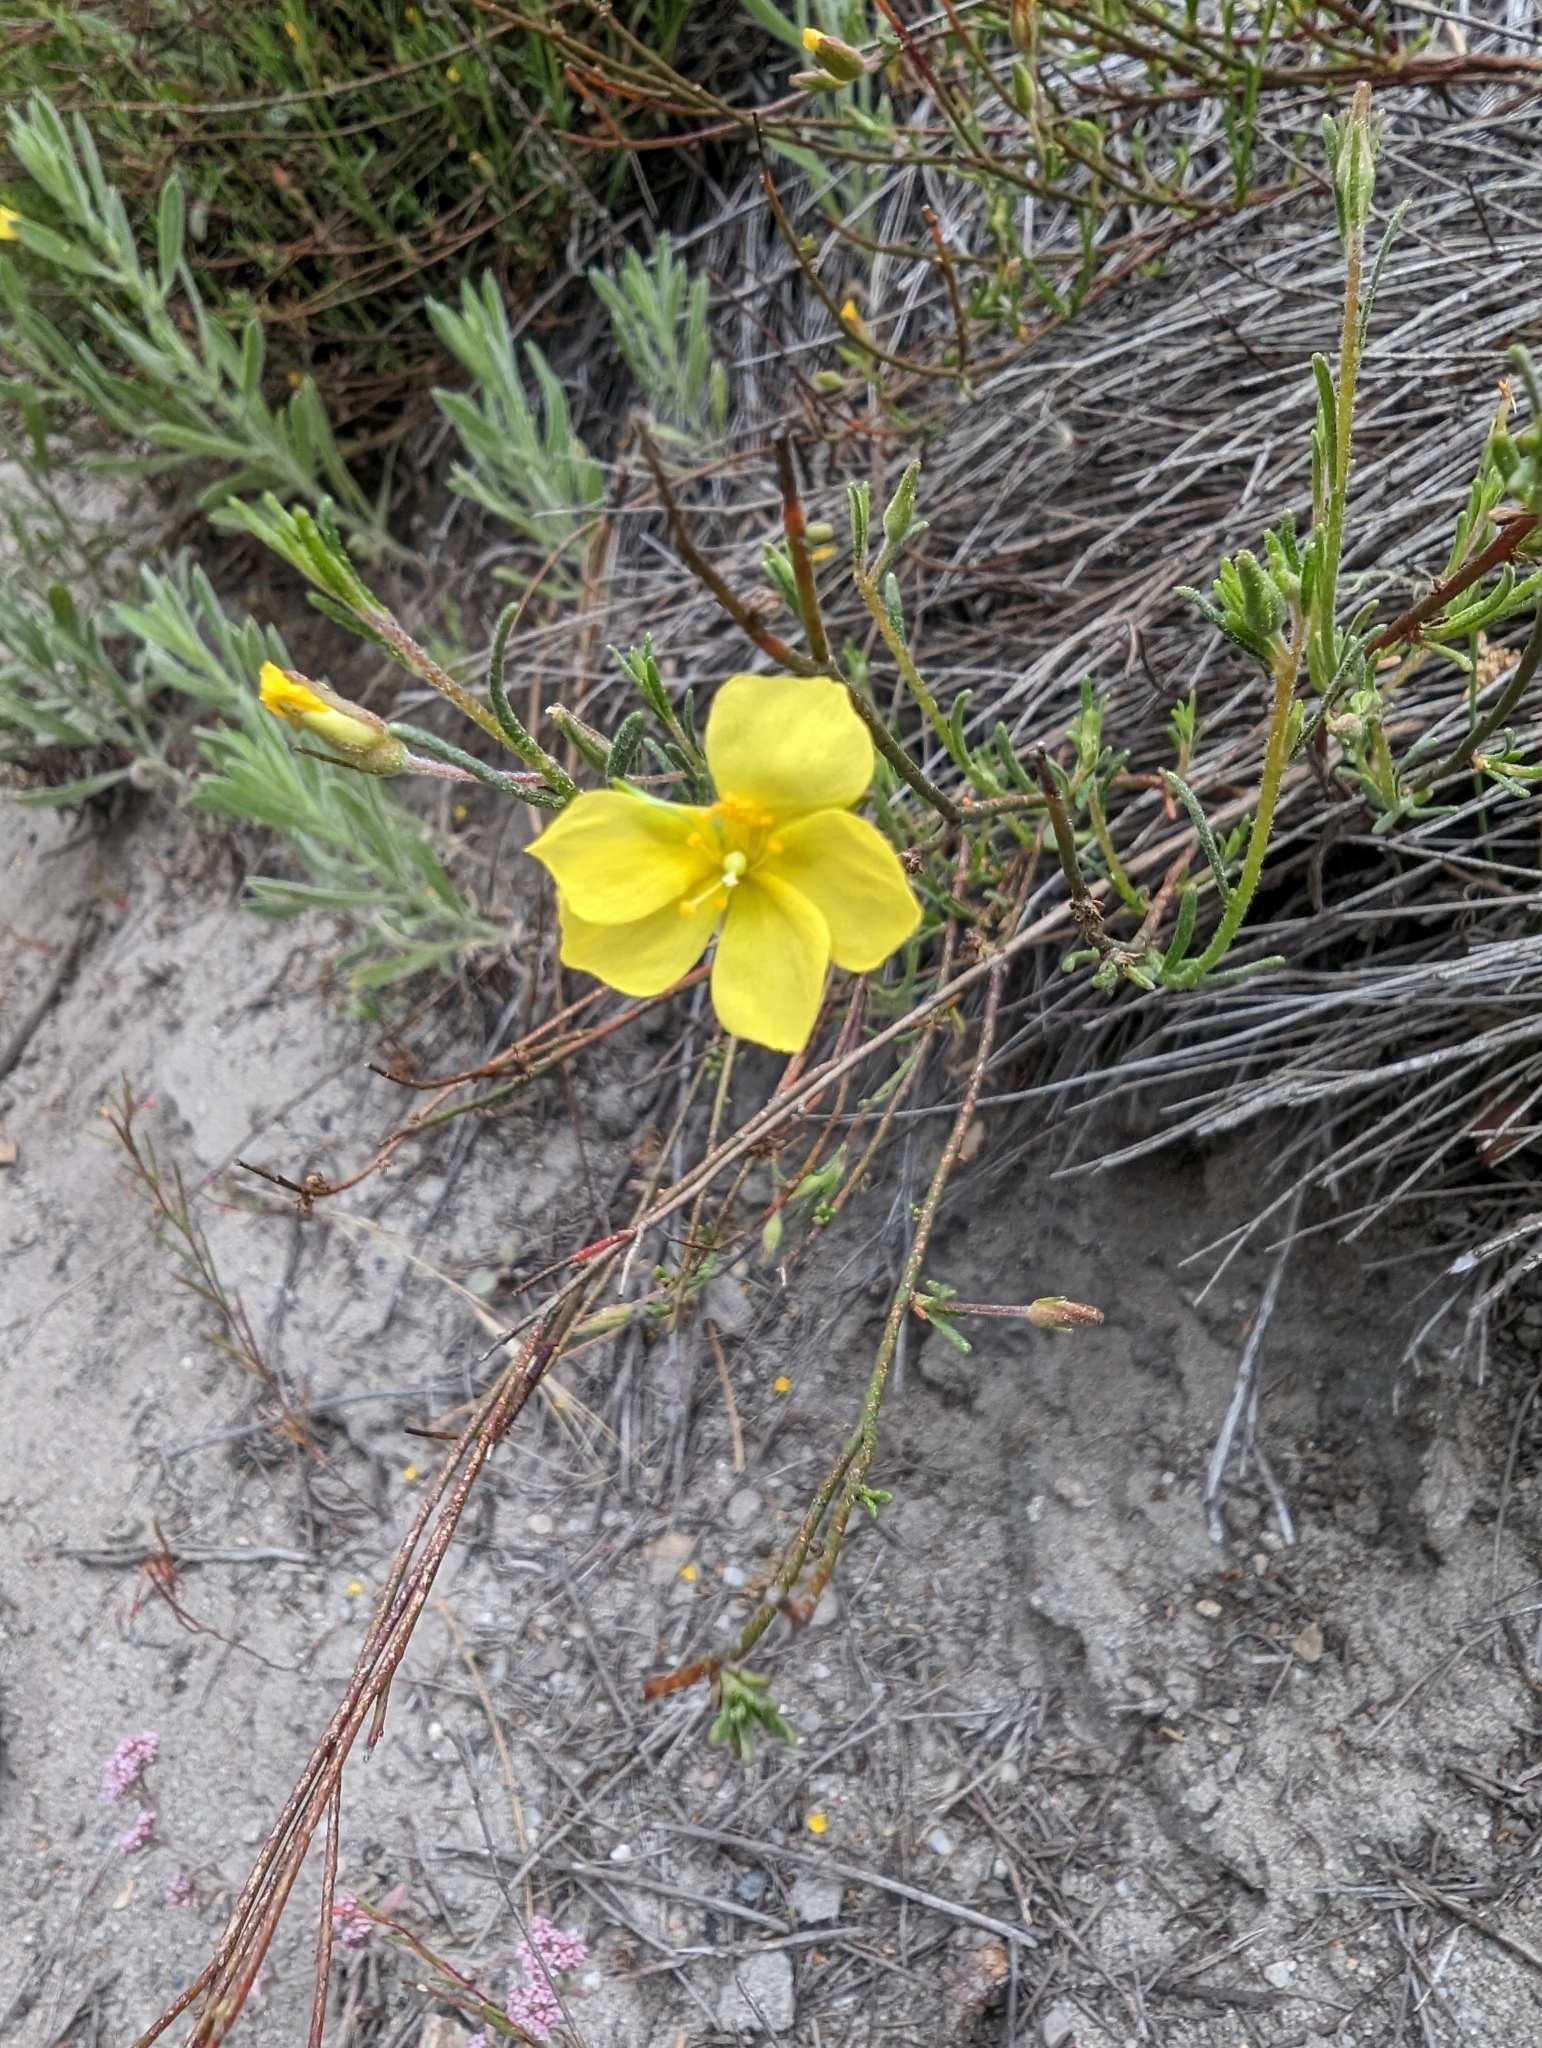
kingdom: Plantae
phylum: Tracheophyta
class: Magnoliopsida
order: Malvales
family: Cistaceae
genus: Crocanthemum
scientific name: Crocanthemum scoparium
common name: Broom-rose
